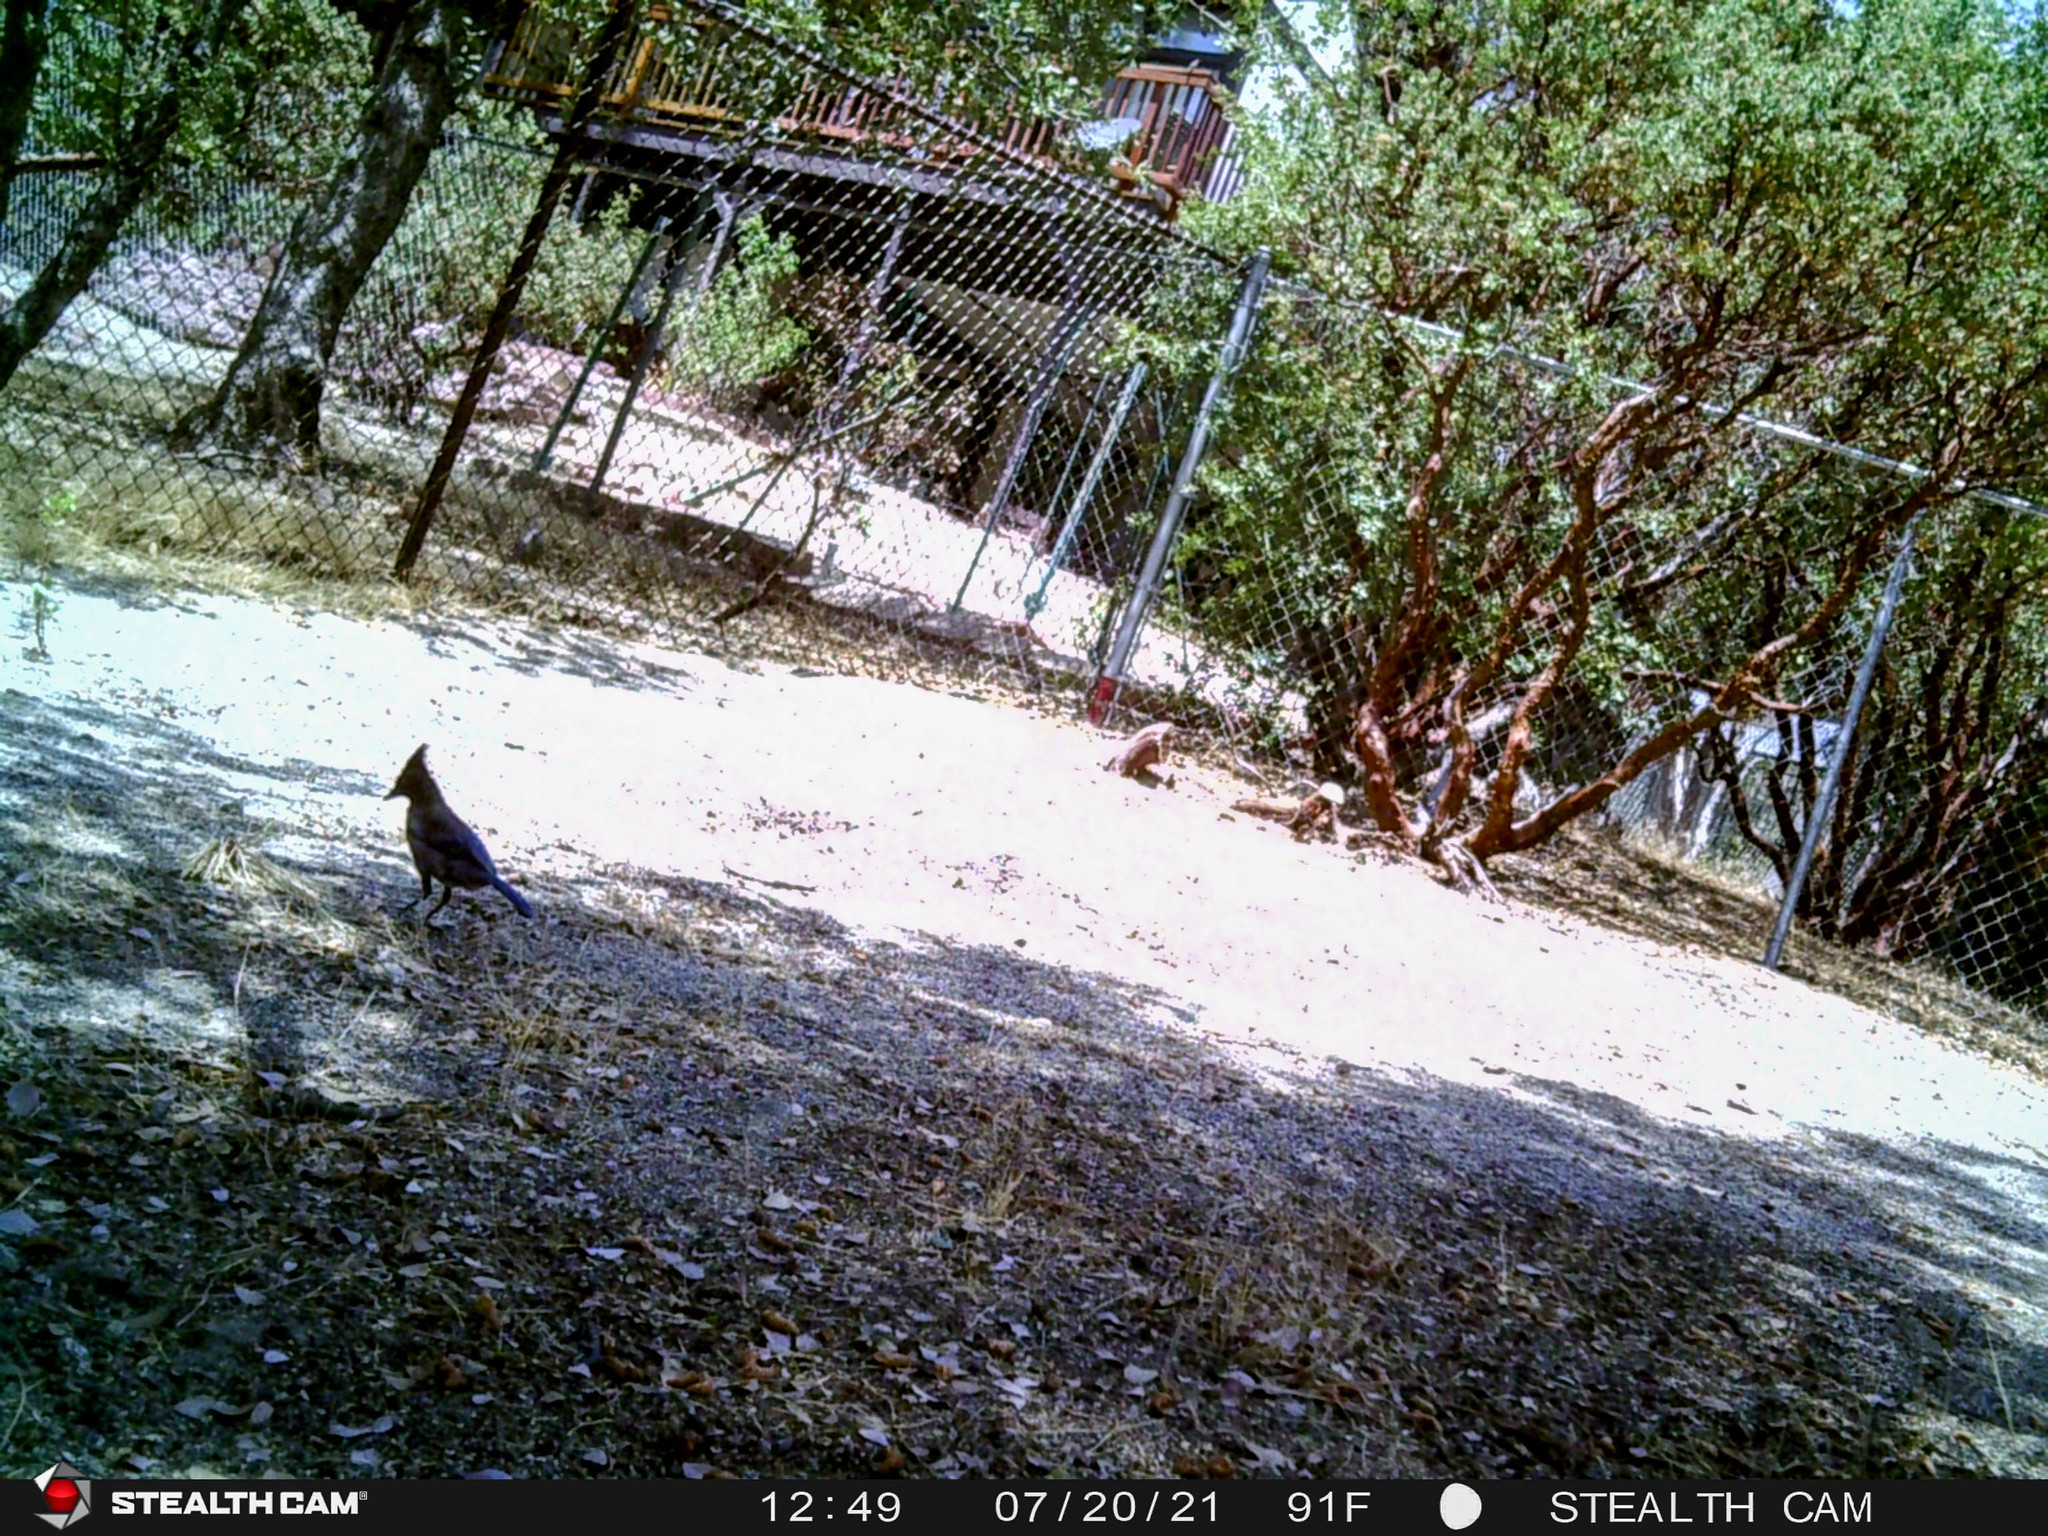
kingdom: Animalia
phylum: Chordata
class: Aves
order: Passeriformes
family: Corvidae
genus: Cyanocitta
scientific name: Cyanocitta stelleri
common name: Steller's jay
